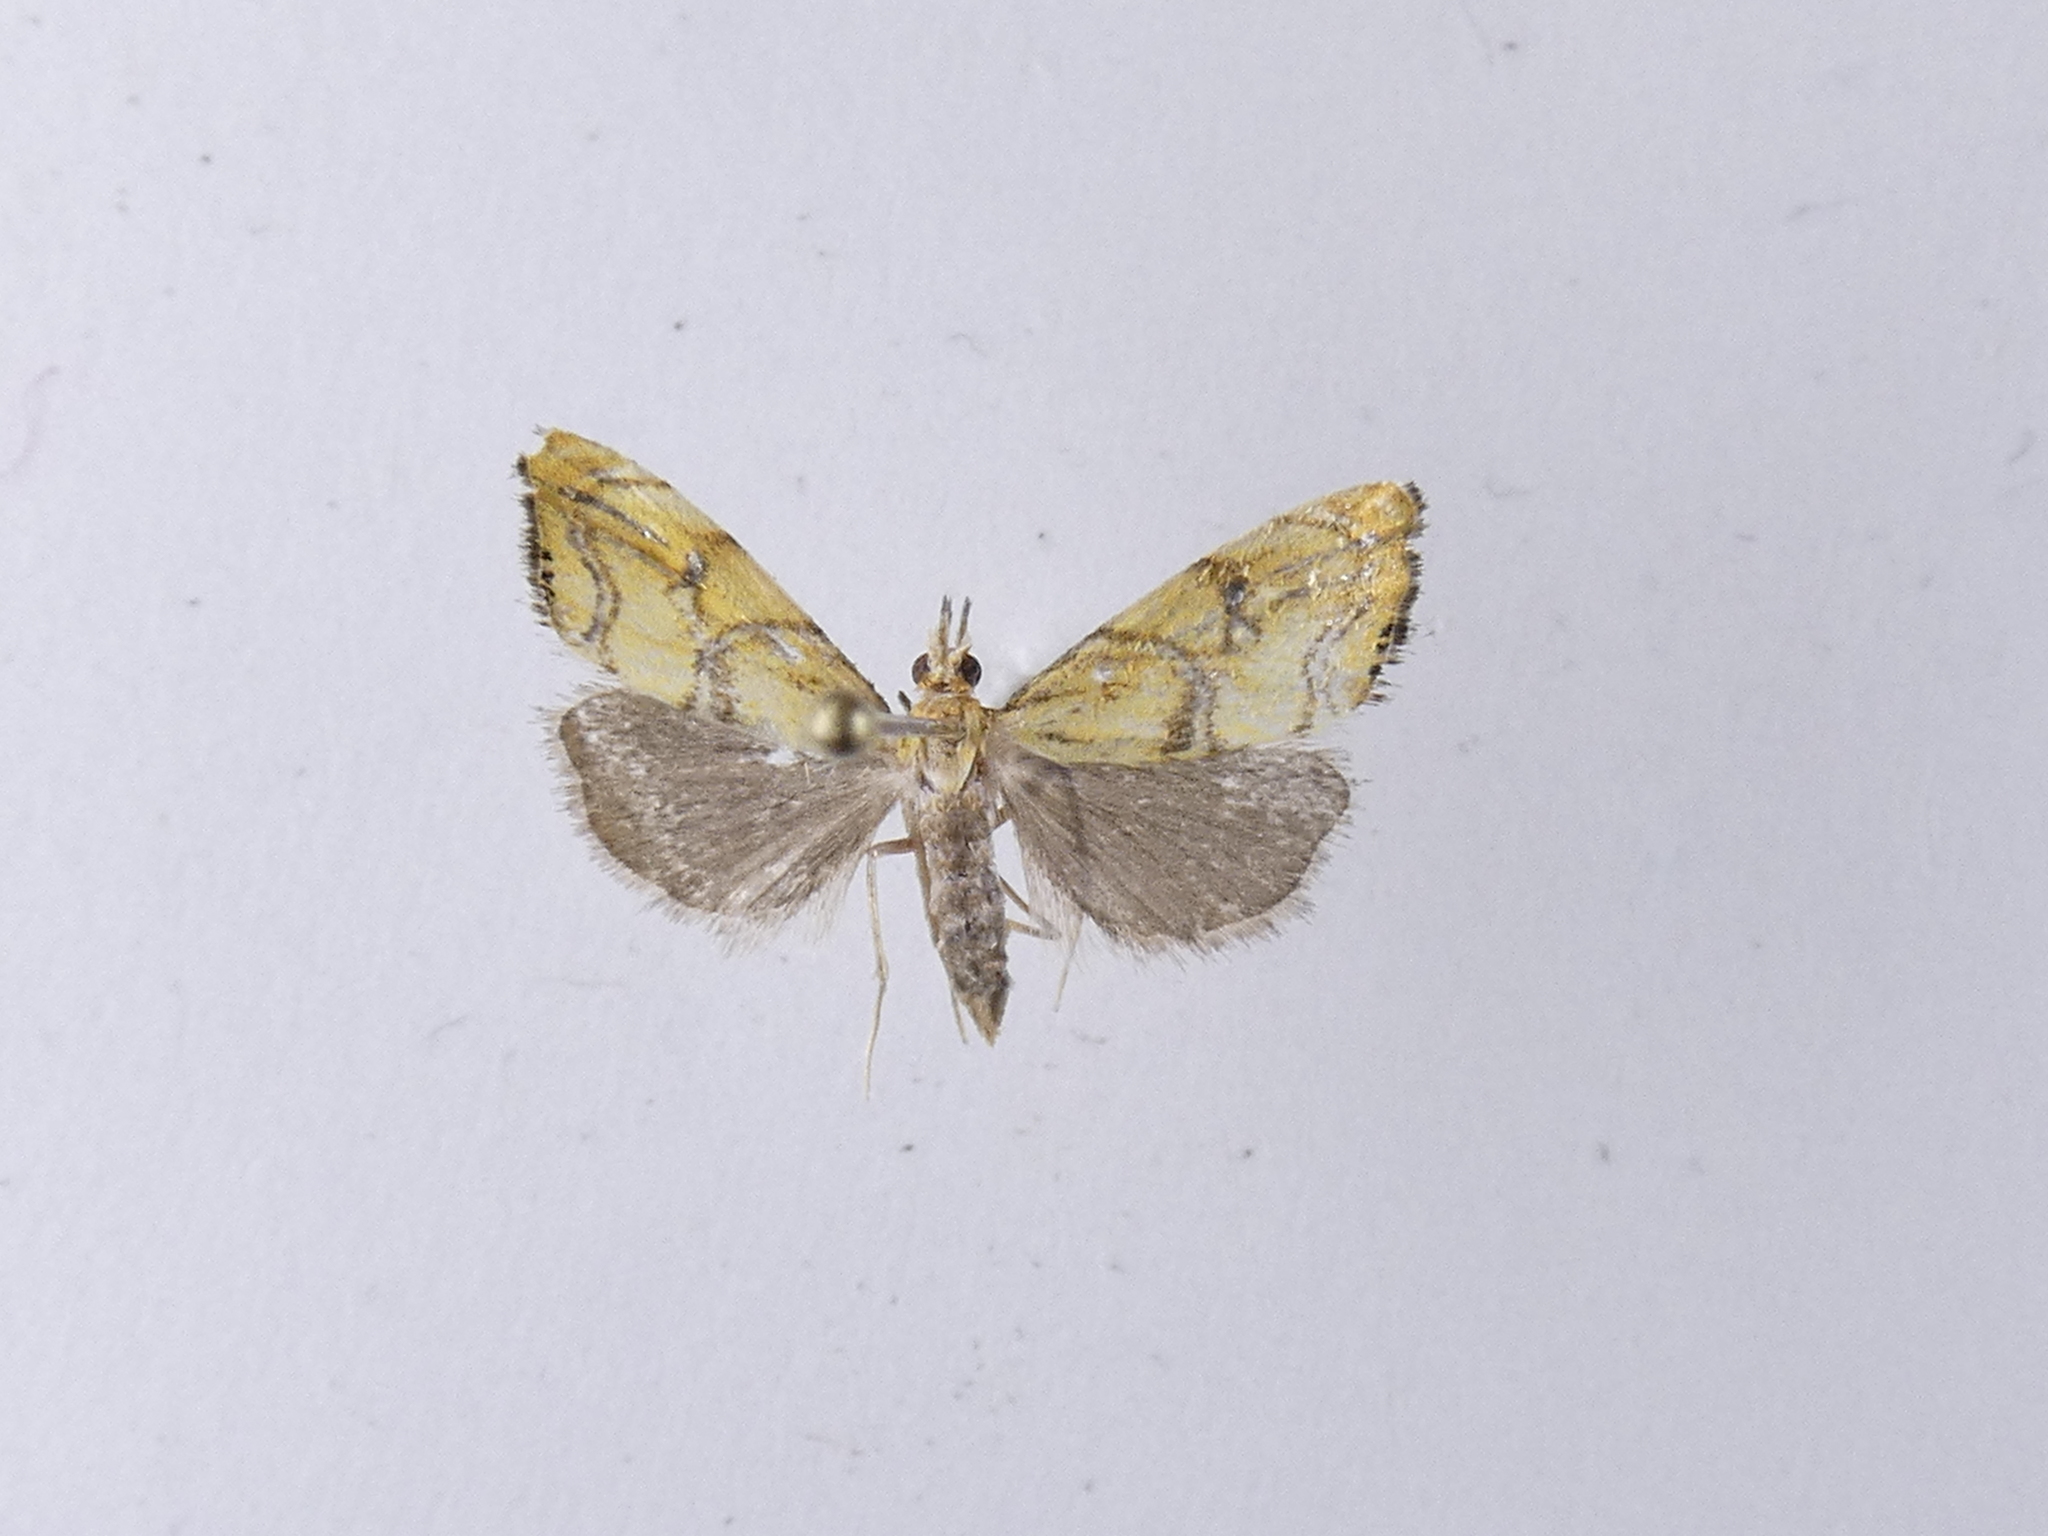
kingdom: Animalia
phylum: Arthropoda
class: Insecta
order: Lepidoptera
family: Crambidae
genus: Glaucocharis
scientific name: Glaucocharis auriscriptella
